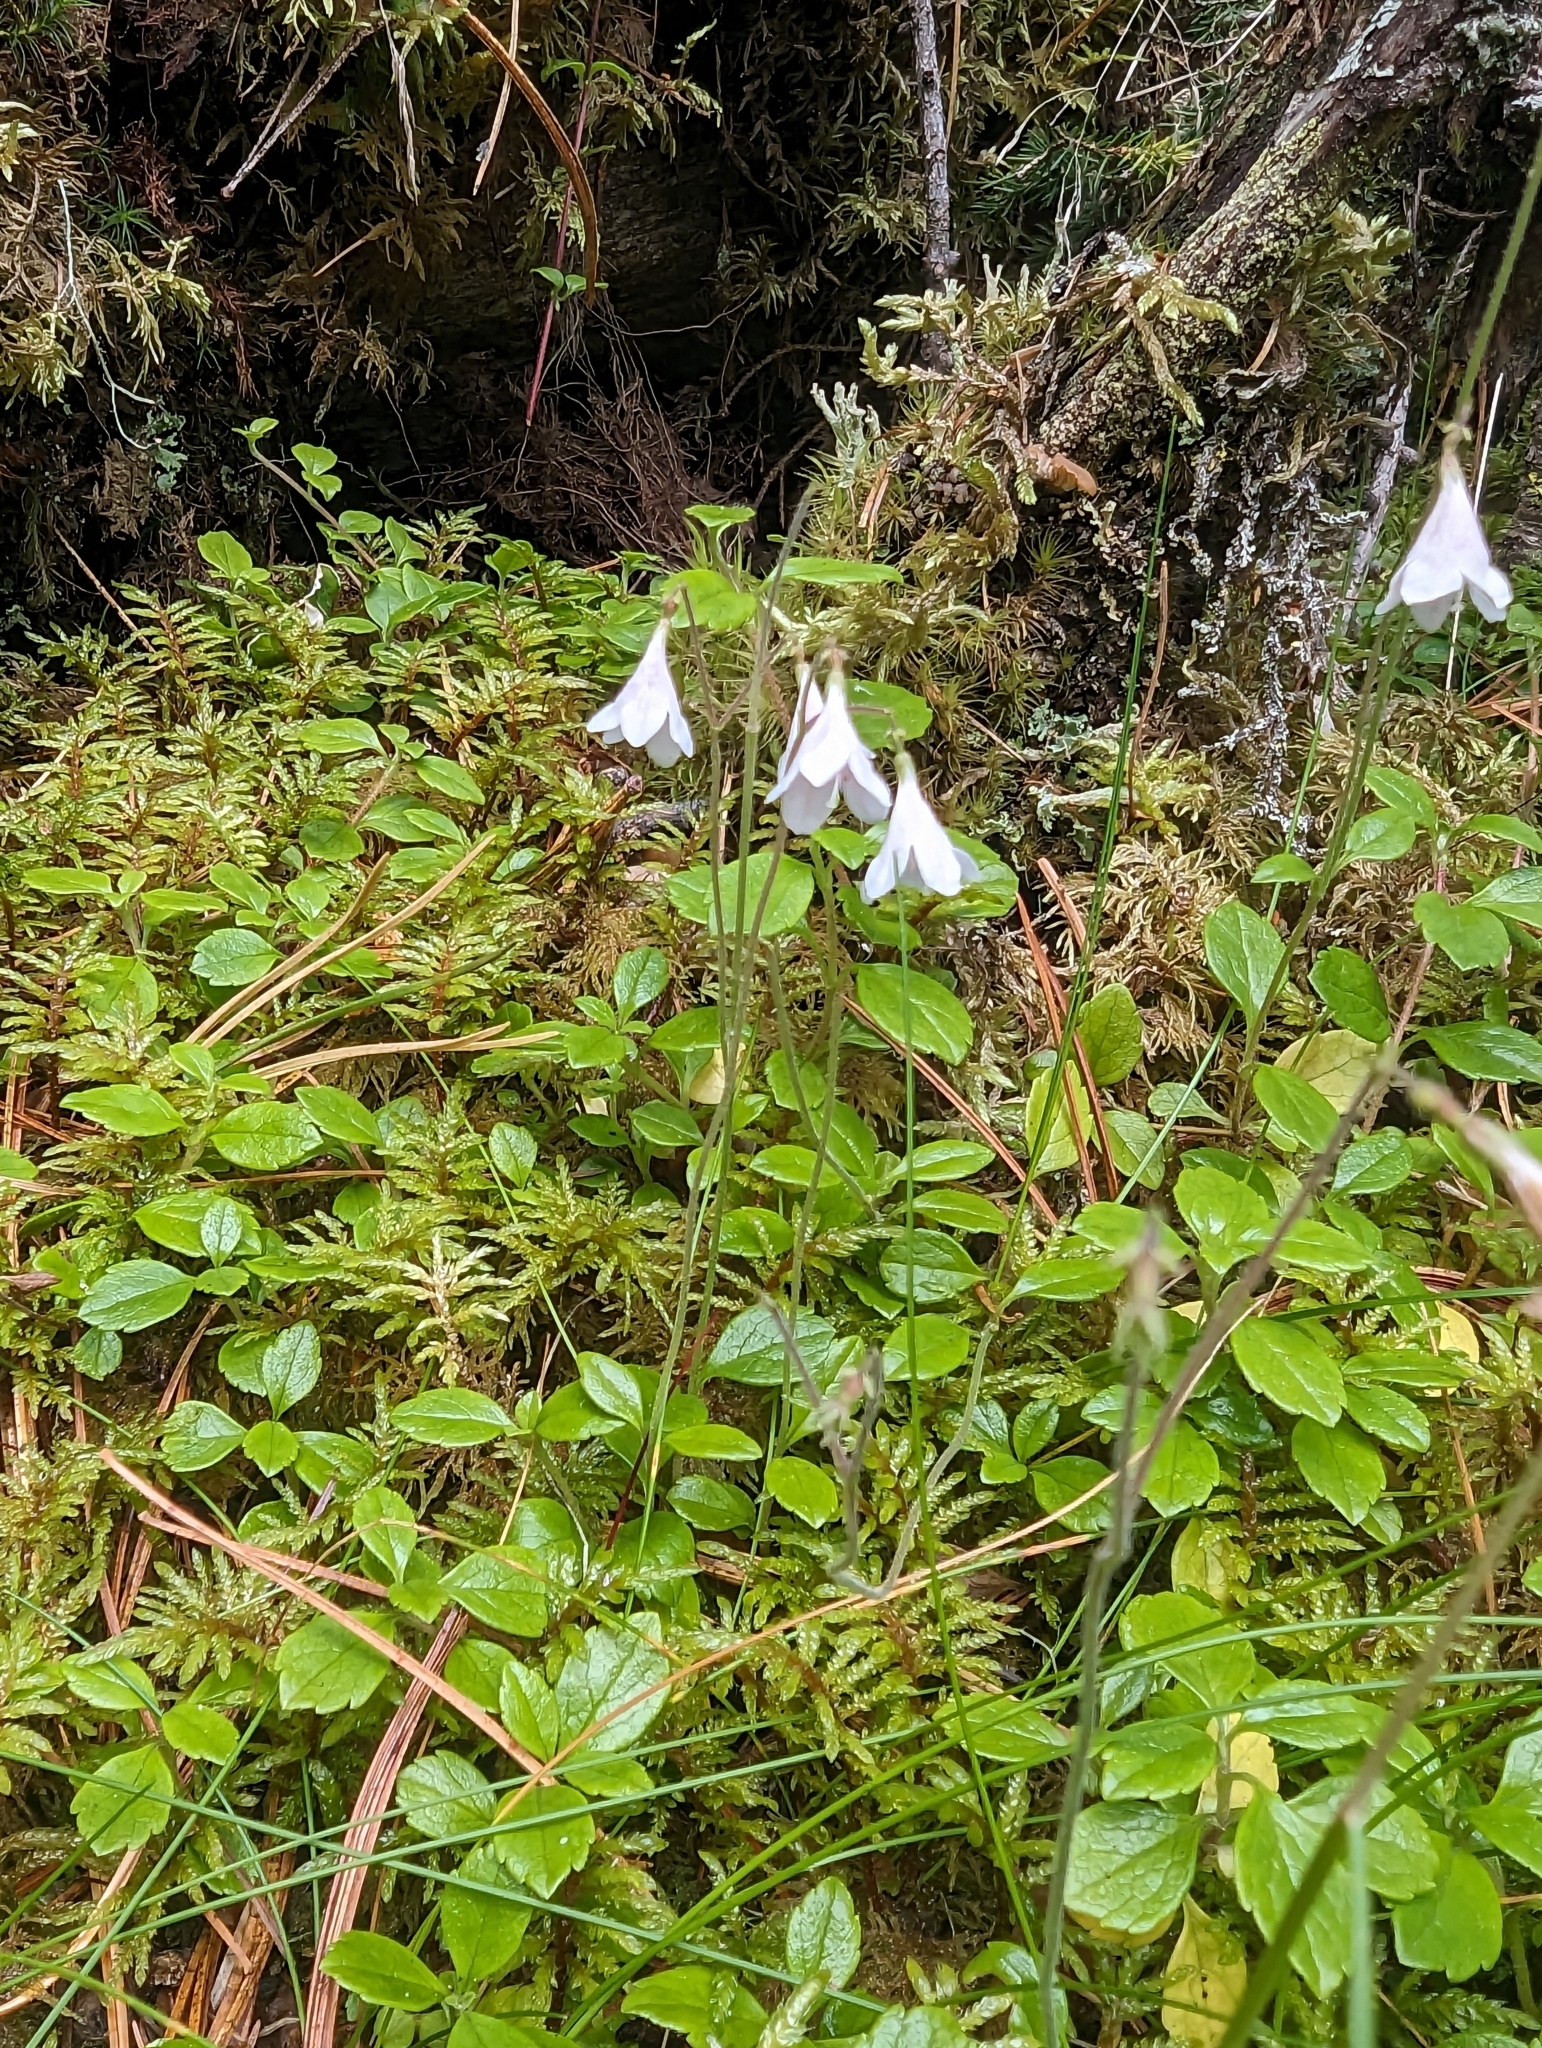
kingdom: Plantae
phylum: Tracheophyta
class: Magnoliopsida
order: Dipsacales
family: Caprifoliaceae
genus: Linnaea
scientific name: Linnaea borealis
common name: Twinflower
